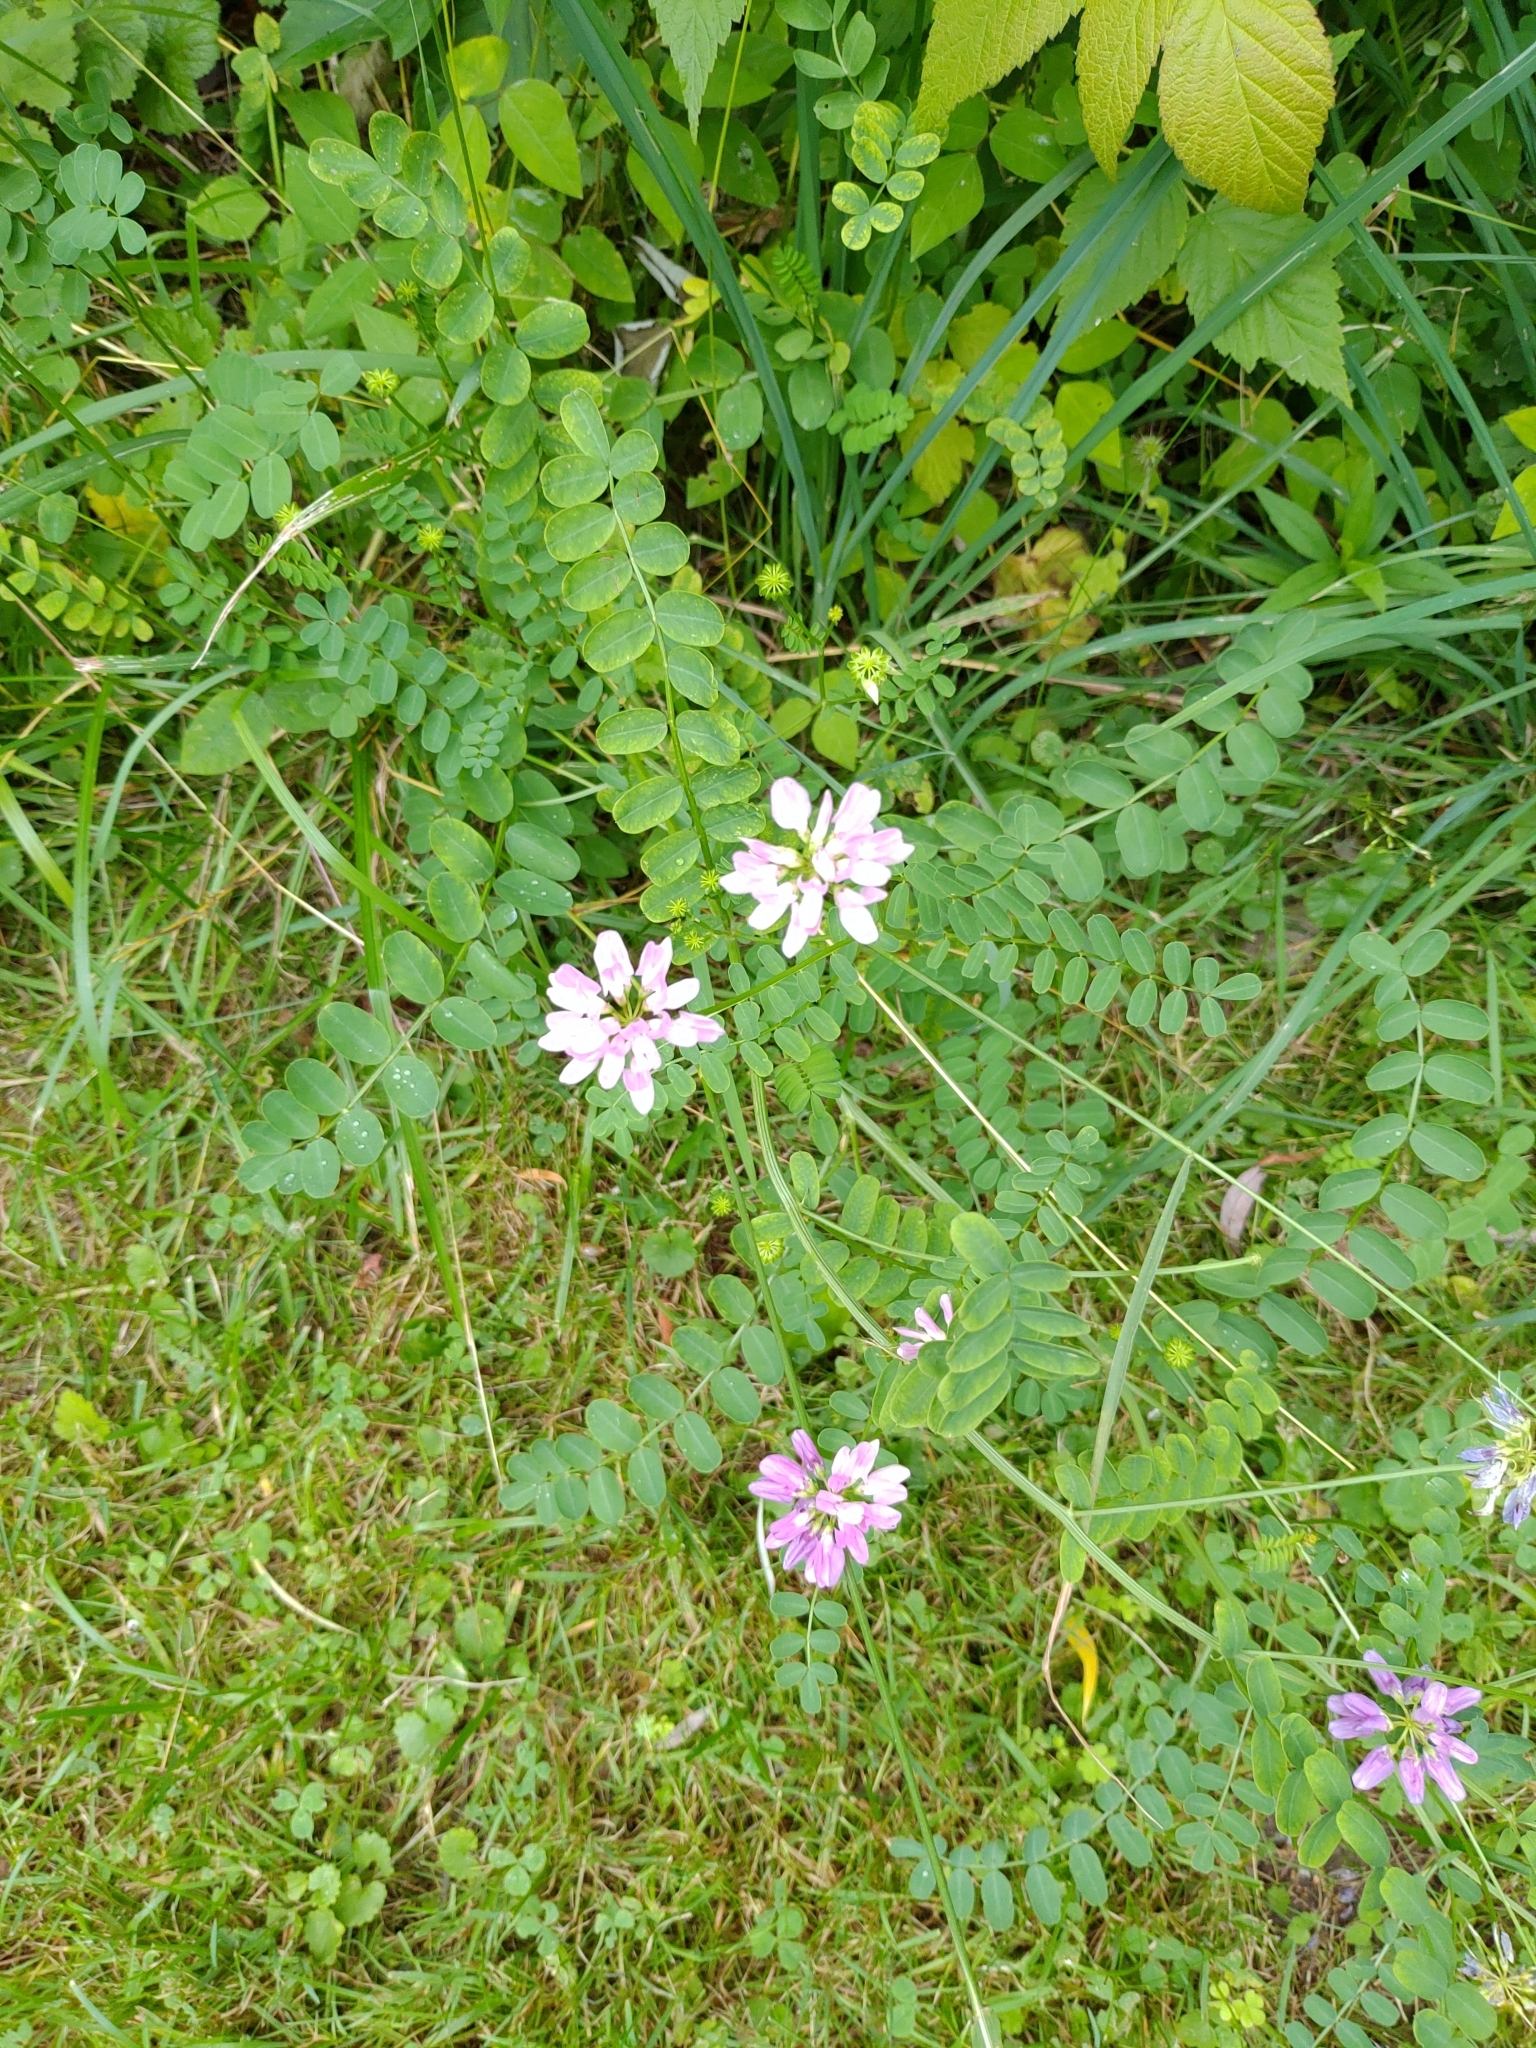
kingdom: Plantae
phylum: Tracheophyta
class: Magnoliopsida
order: Fabales
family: Fabaceae
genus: Coronilla
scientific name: Coronilla varia
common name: Crownvetch
